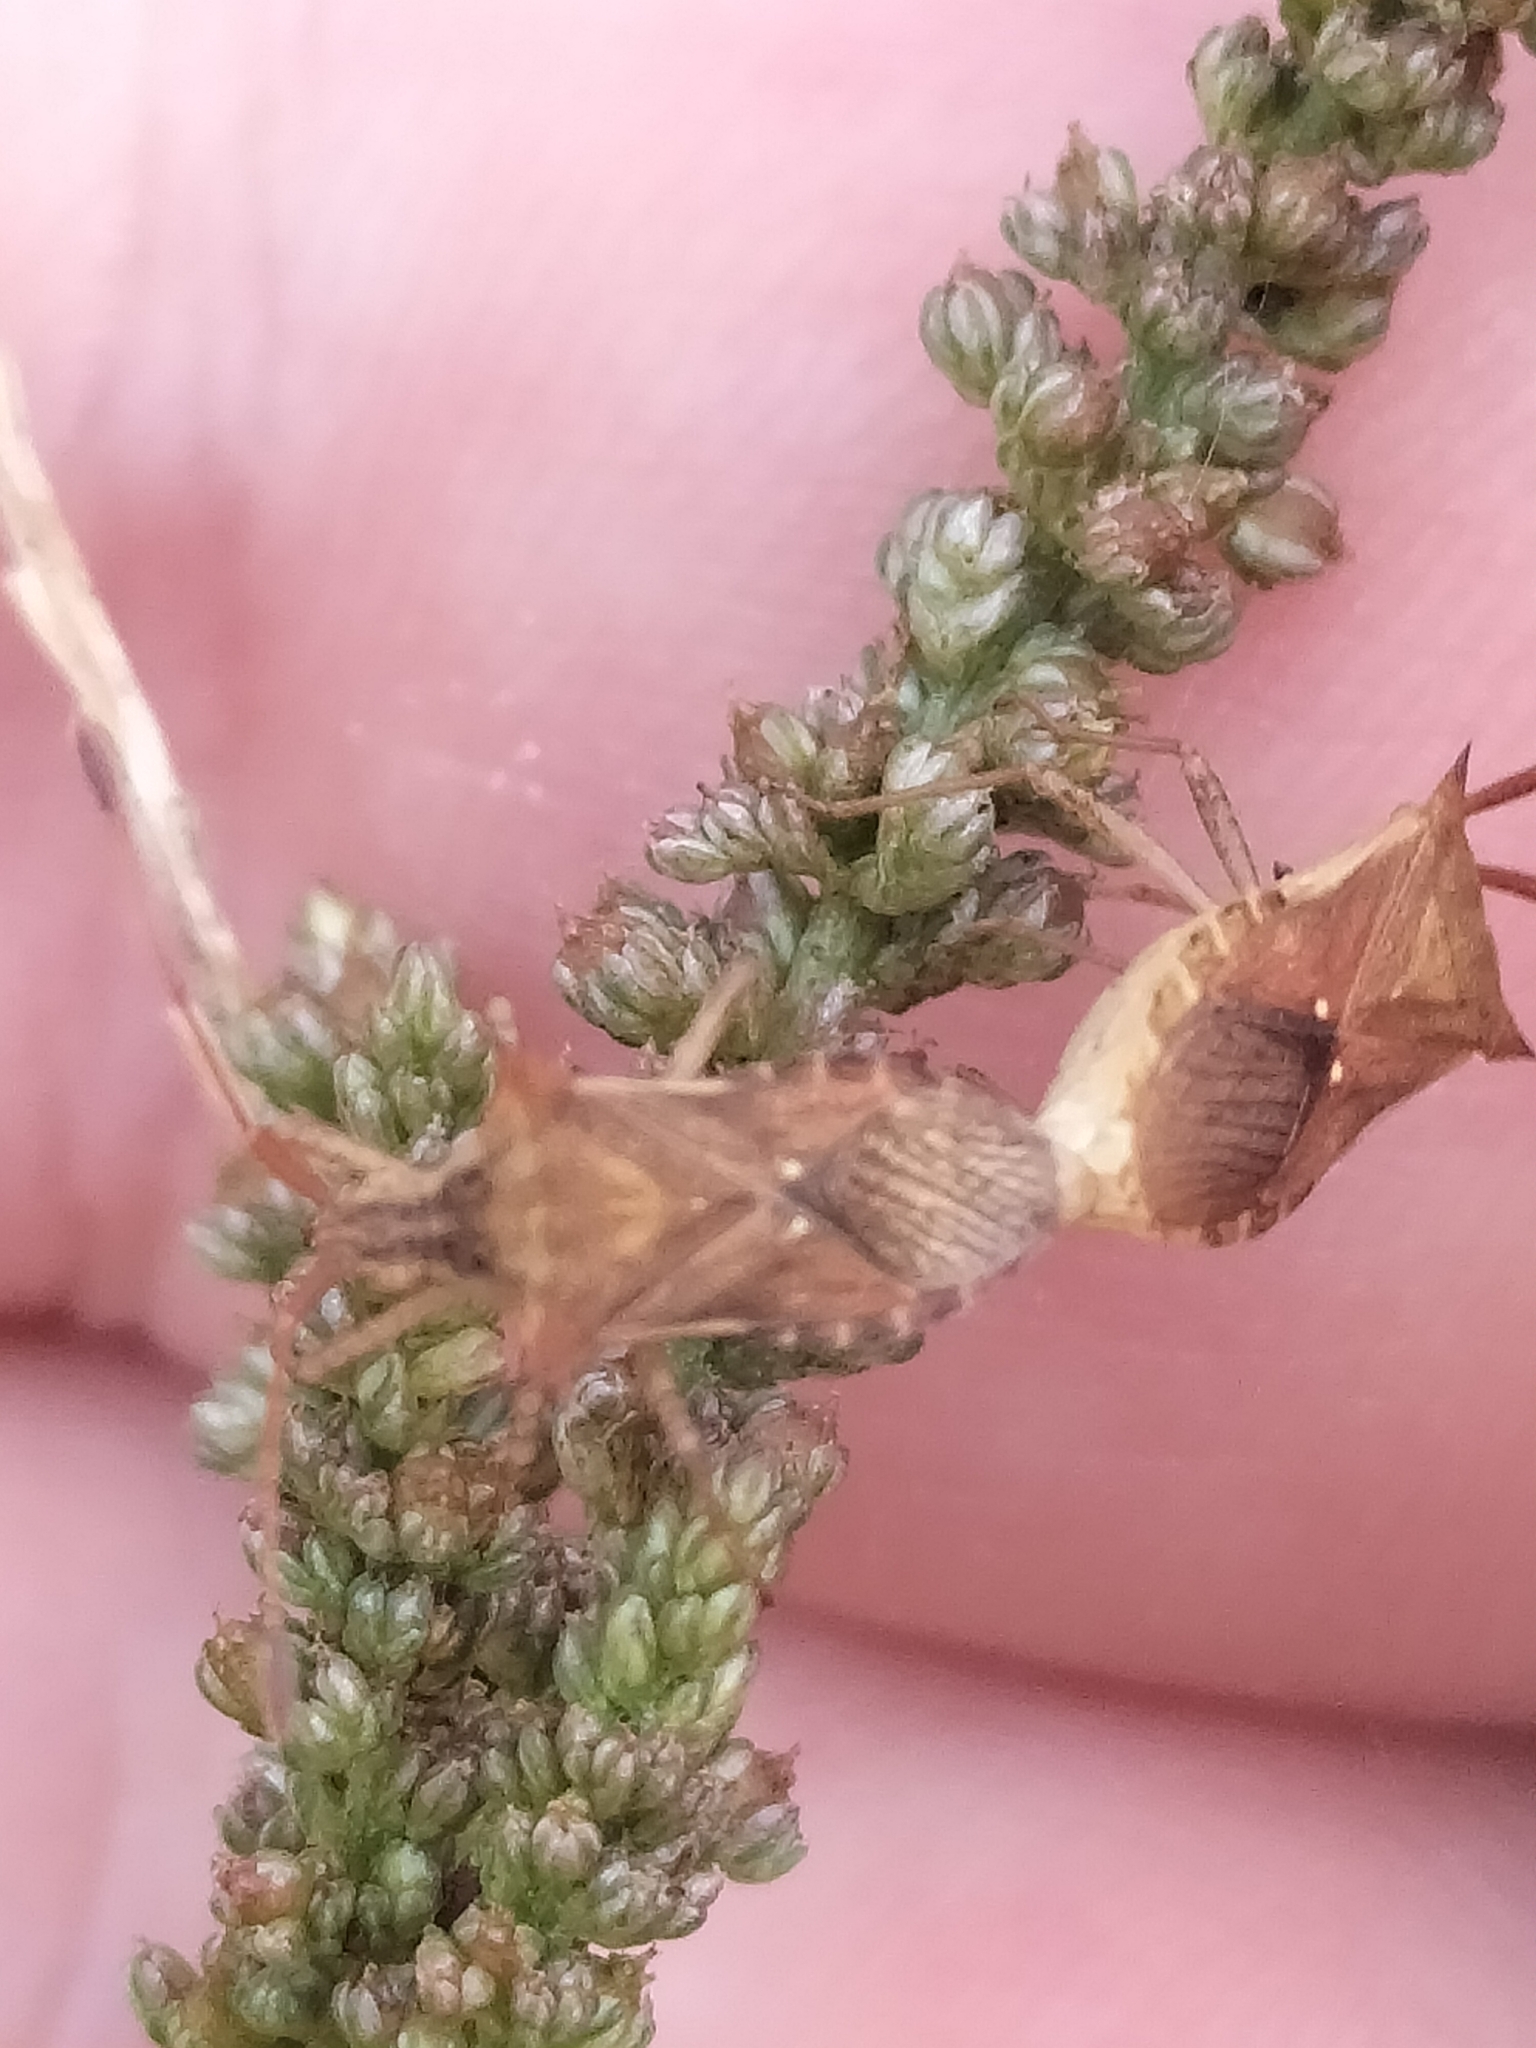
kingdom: Animalia
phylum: Arthropoda
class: Insecta
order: Hemiptera
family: Coreidae
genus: Cletus
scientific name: Cletus minutus
